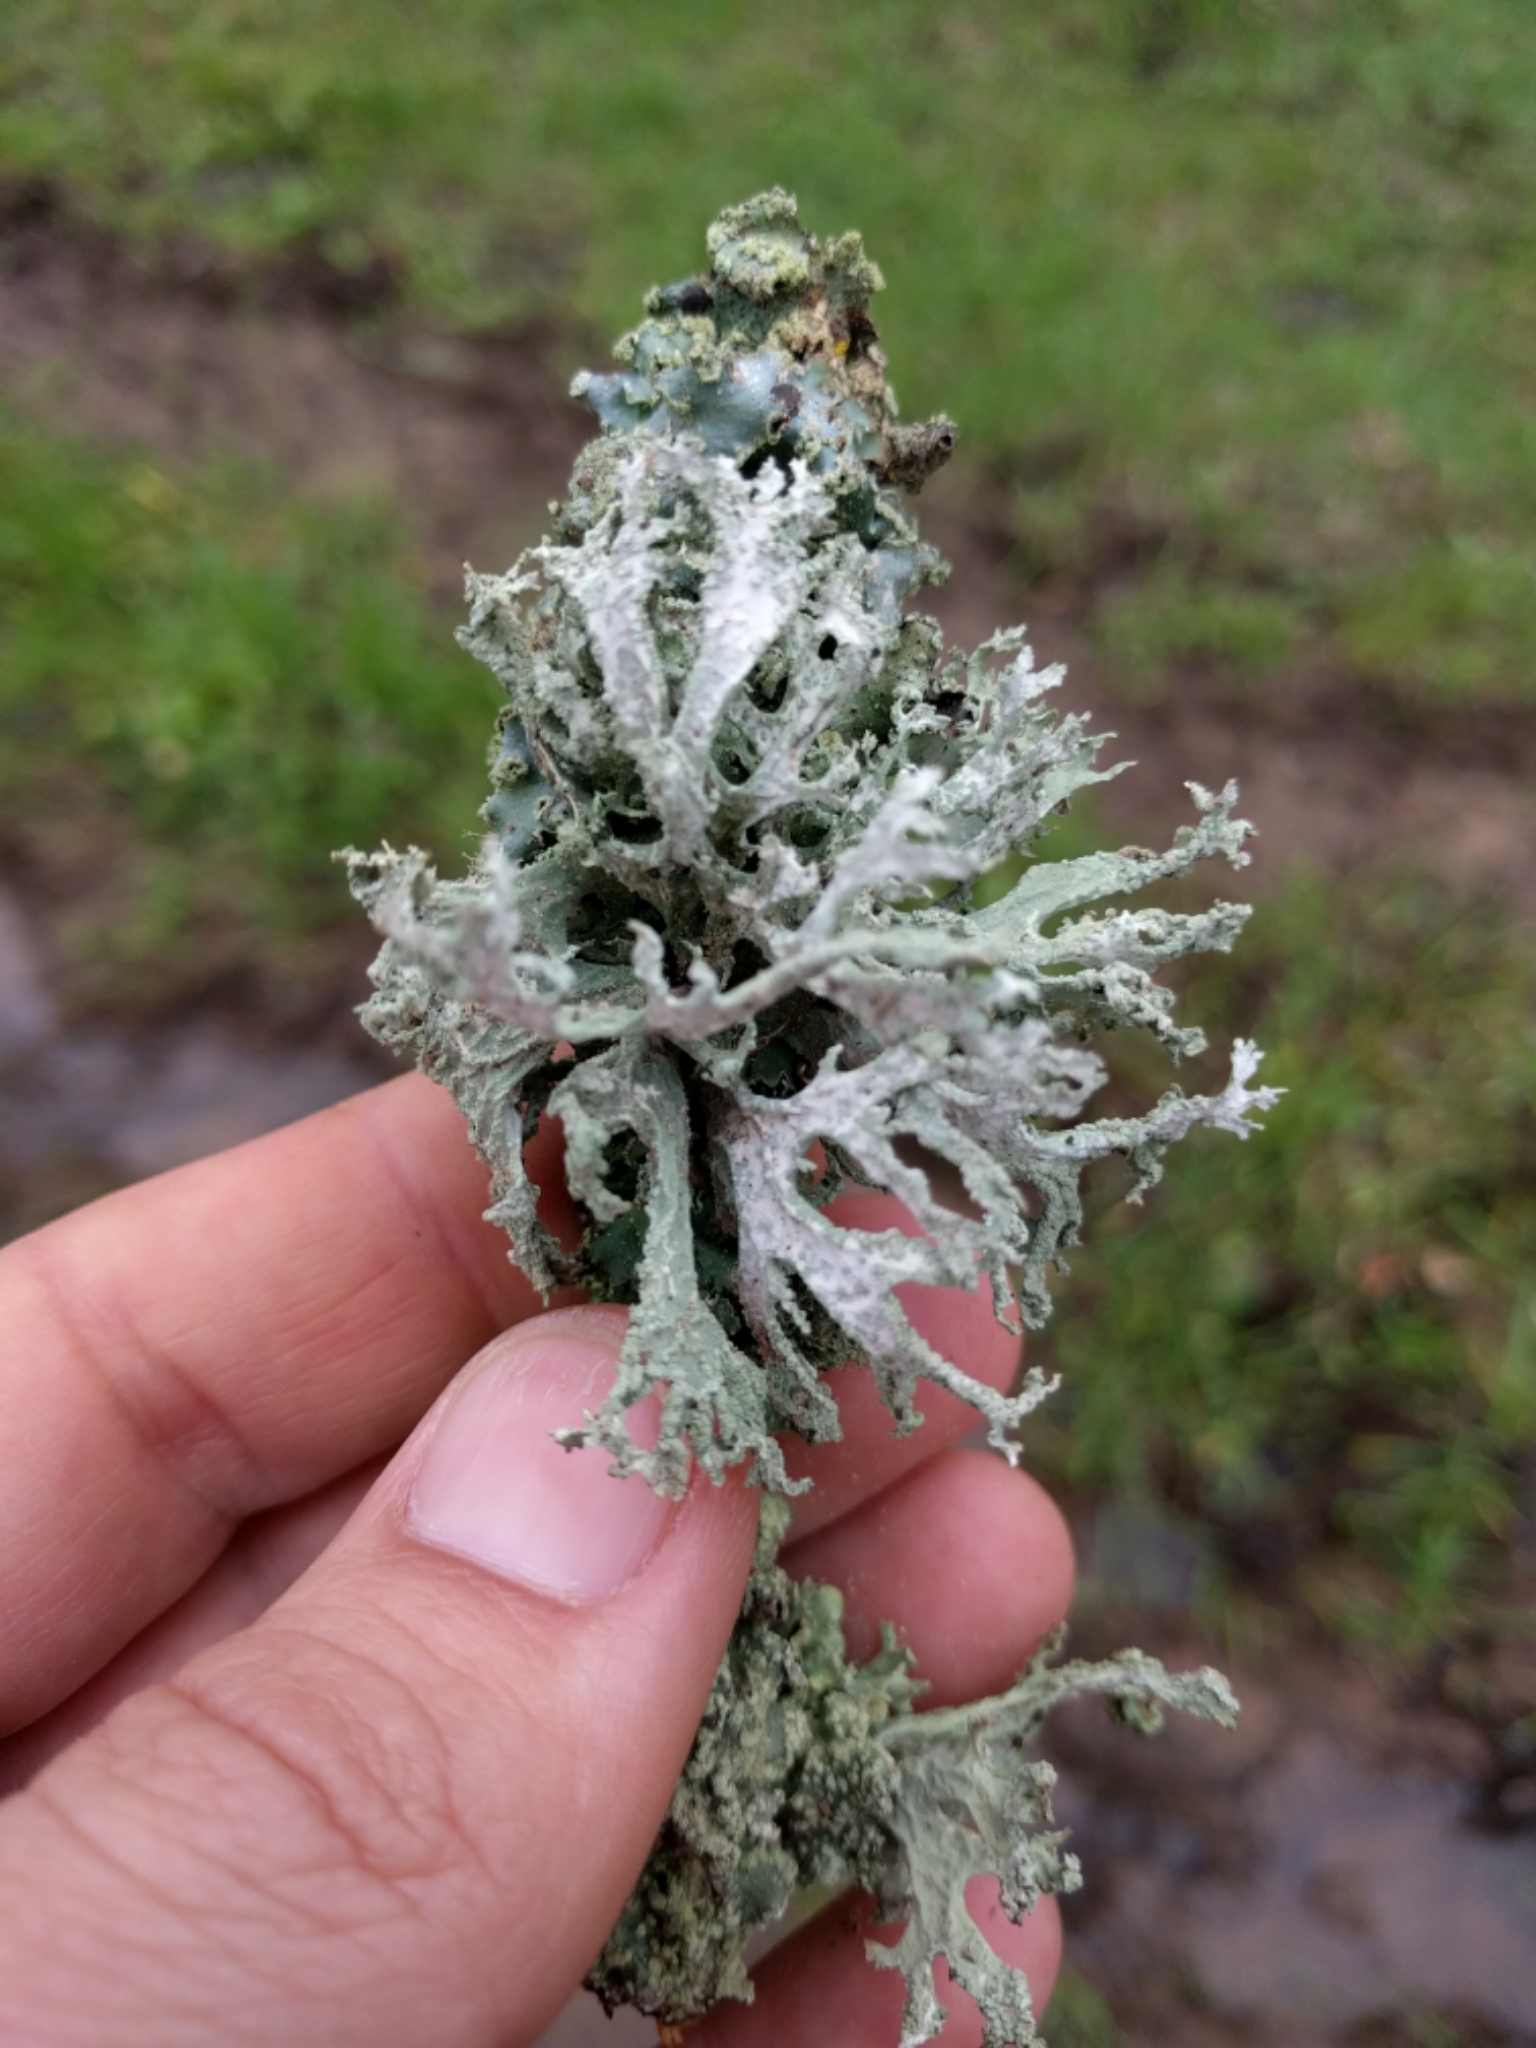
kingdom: Fungi
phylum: Ascomycota
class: Lecanoromycetes
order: Lecanorales
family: Parmeliaceae
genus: Evernia
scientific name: Evernia prunastri
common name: Oak moss
